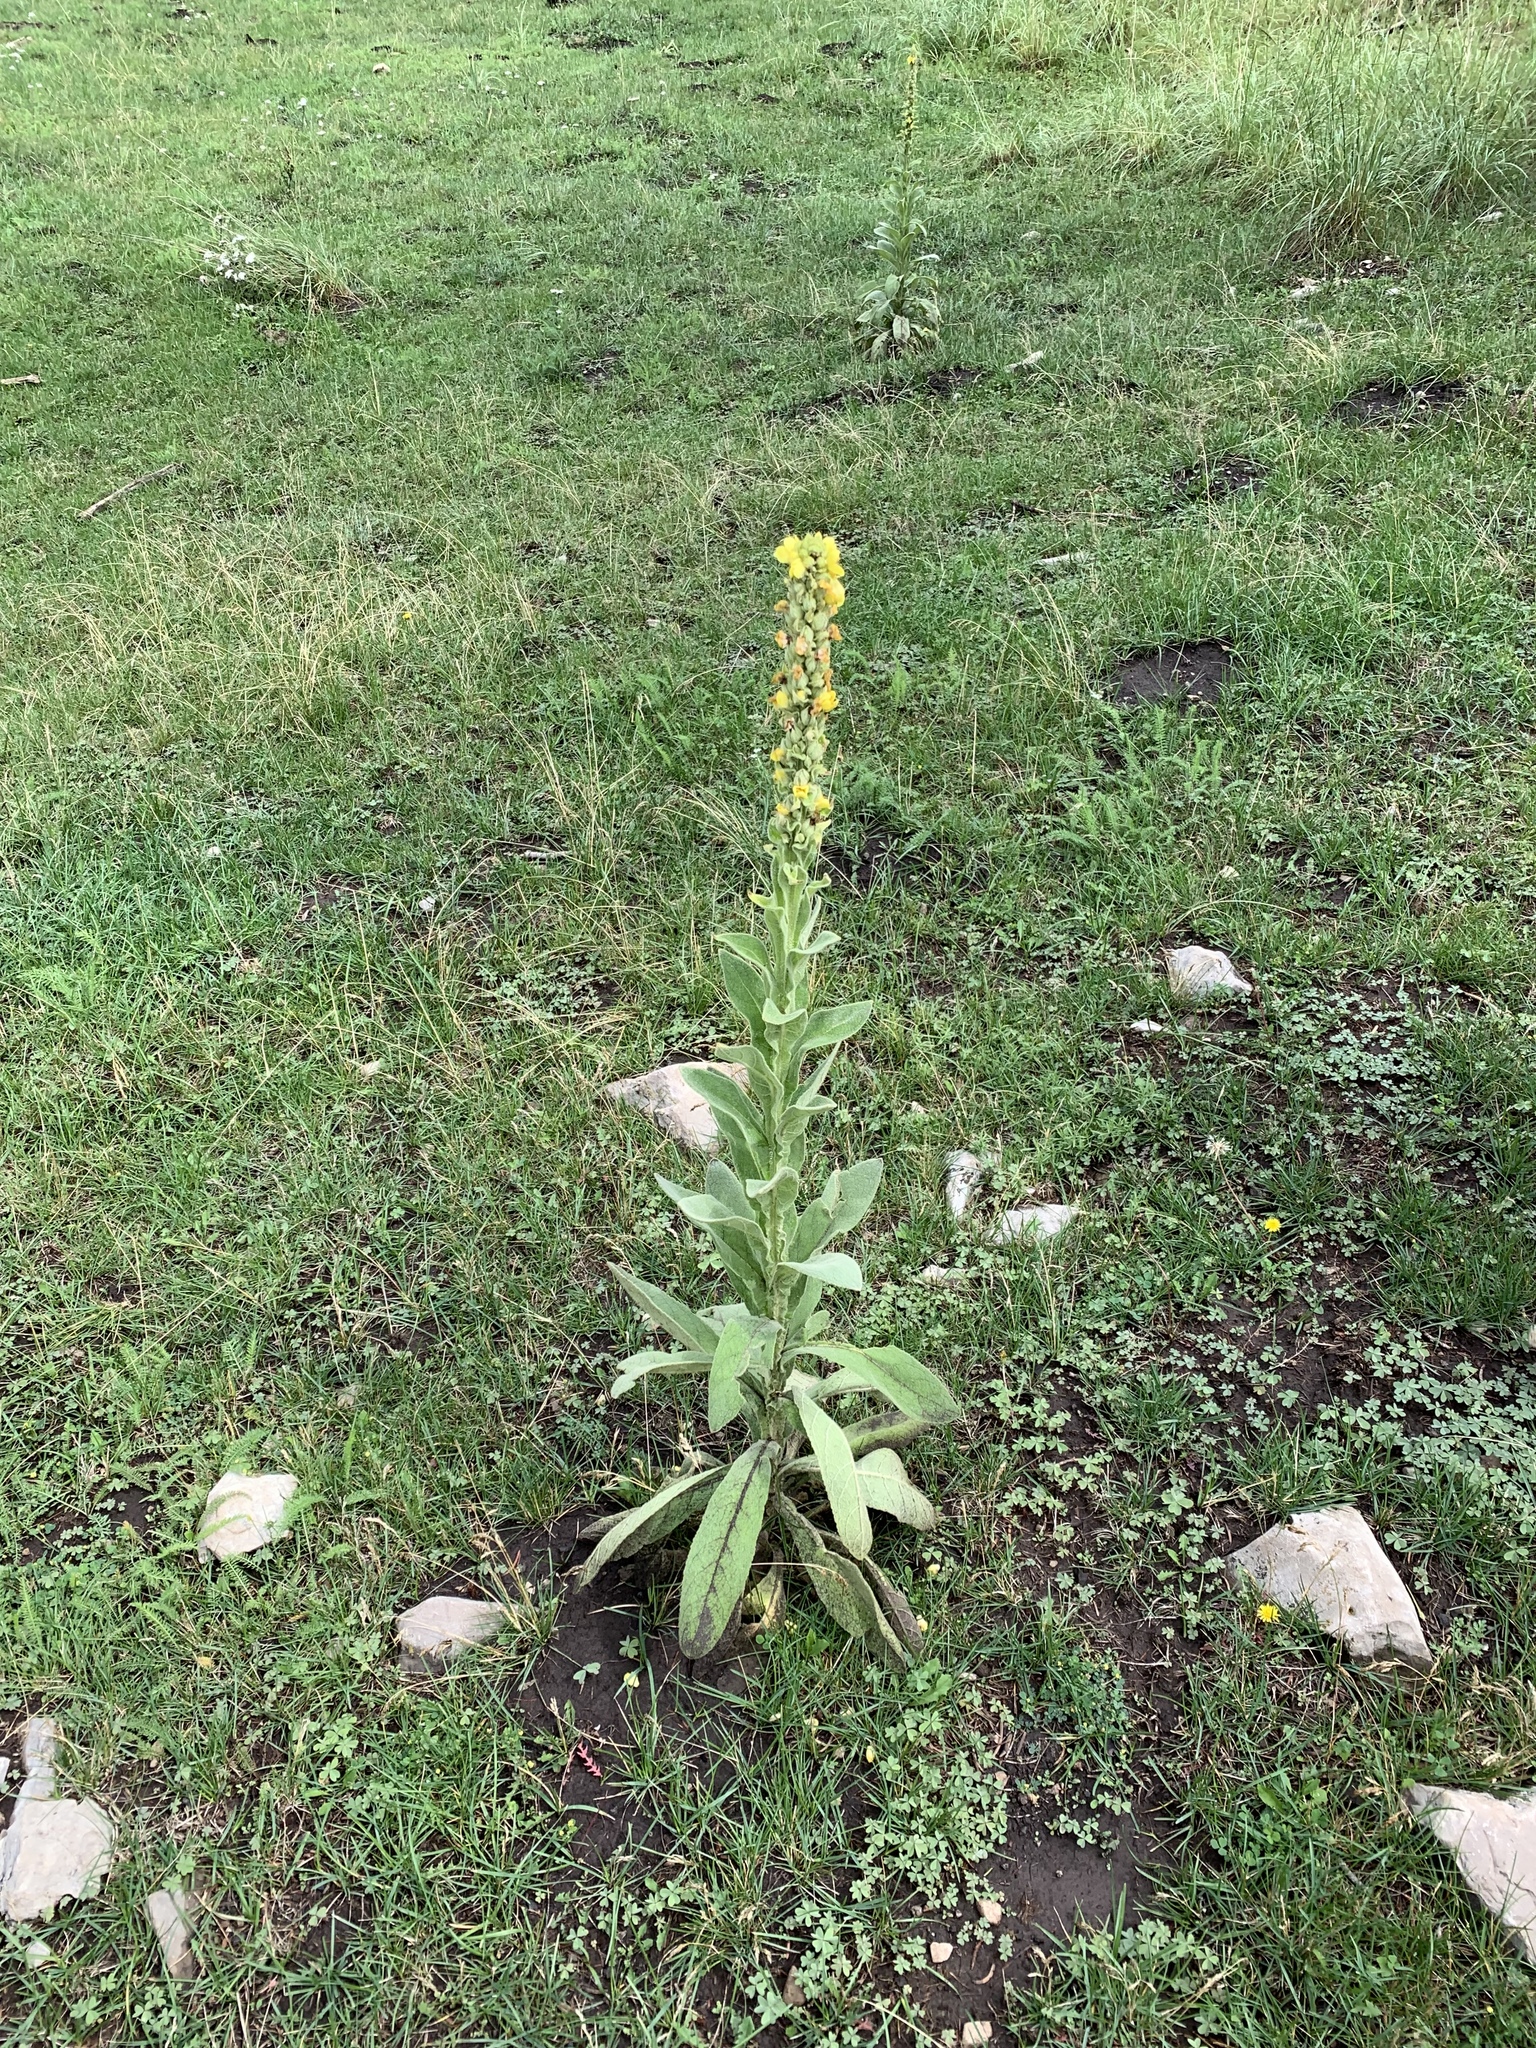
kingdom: Plantae
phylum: Tracheophyta
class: Magnoliopsida
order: Lamiales
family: Scrophulariaceae
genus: Verbascum
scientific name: Verbascum thapsus
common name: Common mullein
